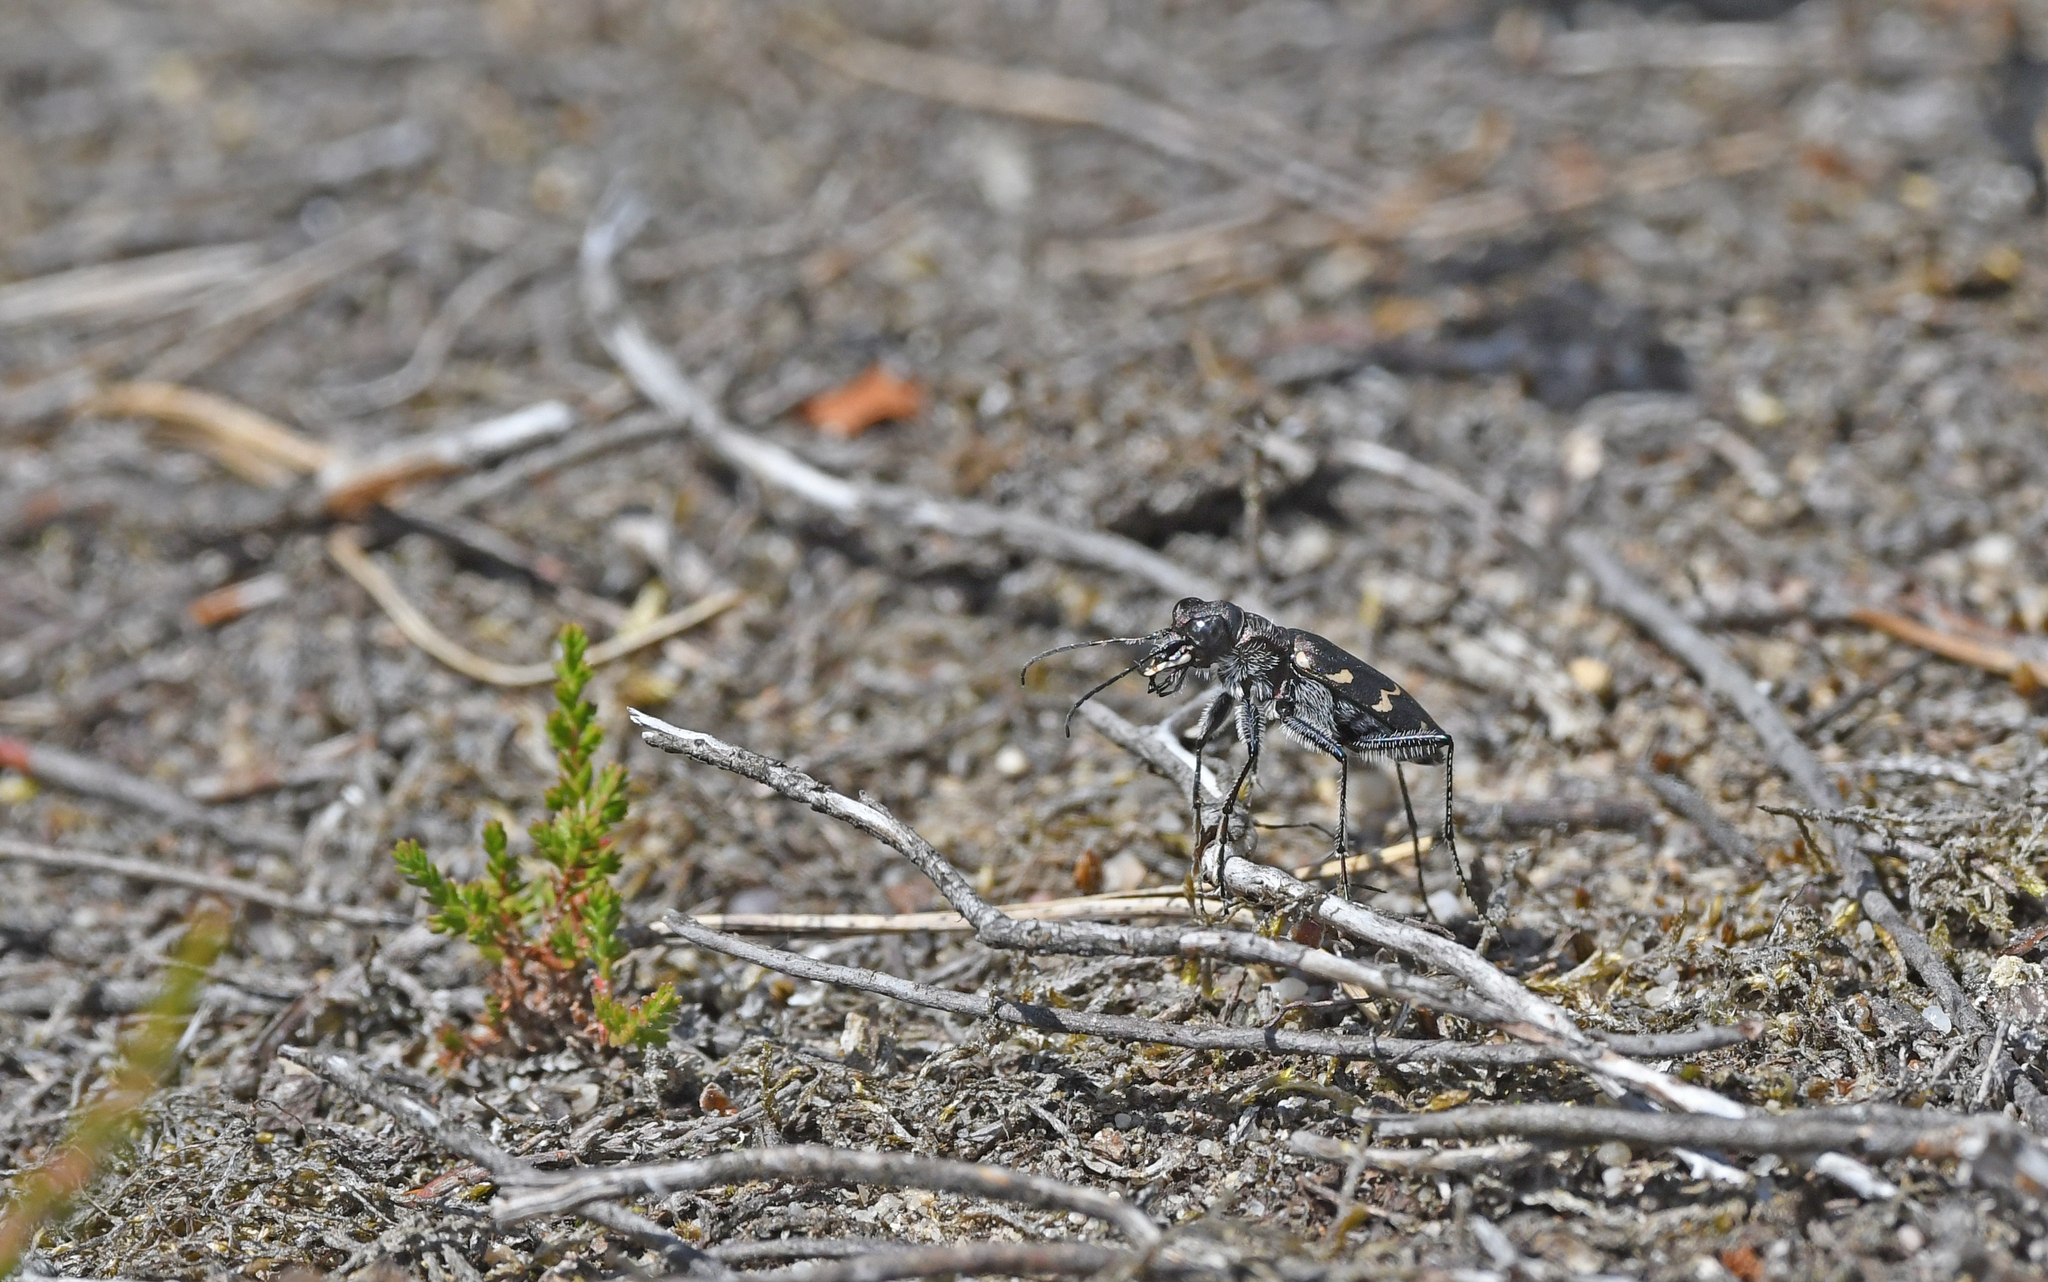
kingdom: Animalia
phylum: Arthropoda
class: Insecta
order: Coleoptera
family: Carabidae
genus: Cicindela
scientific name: Cicindela sylvatica
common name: Heath tiger beetle
